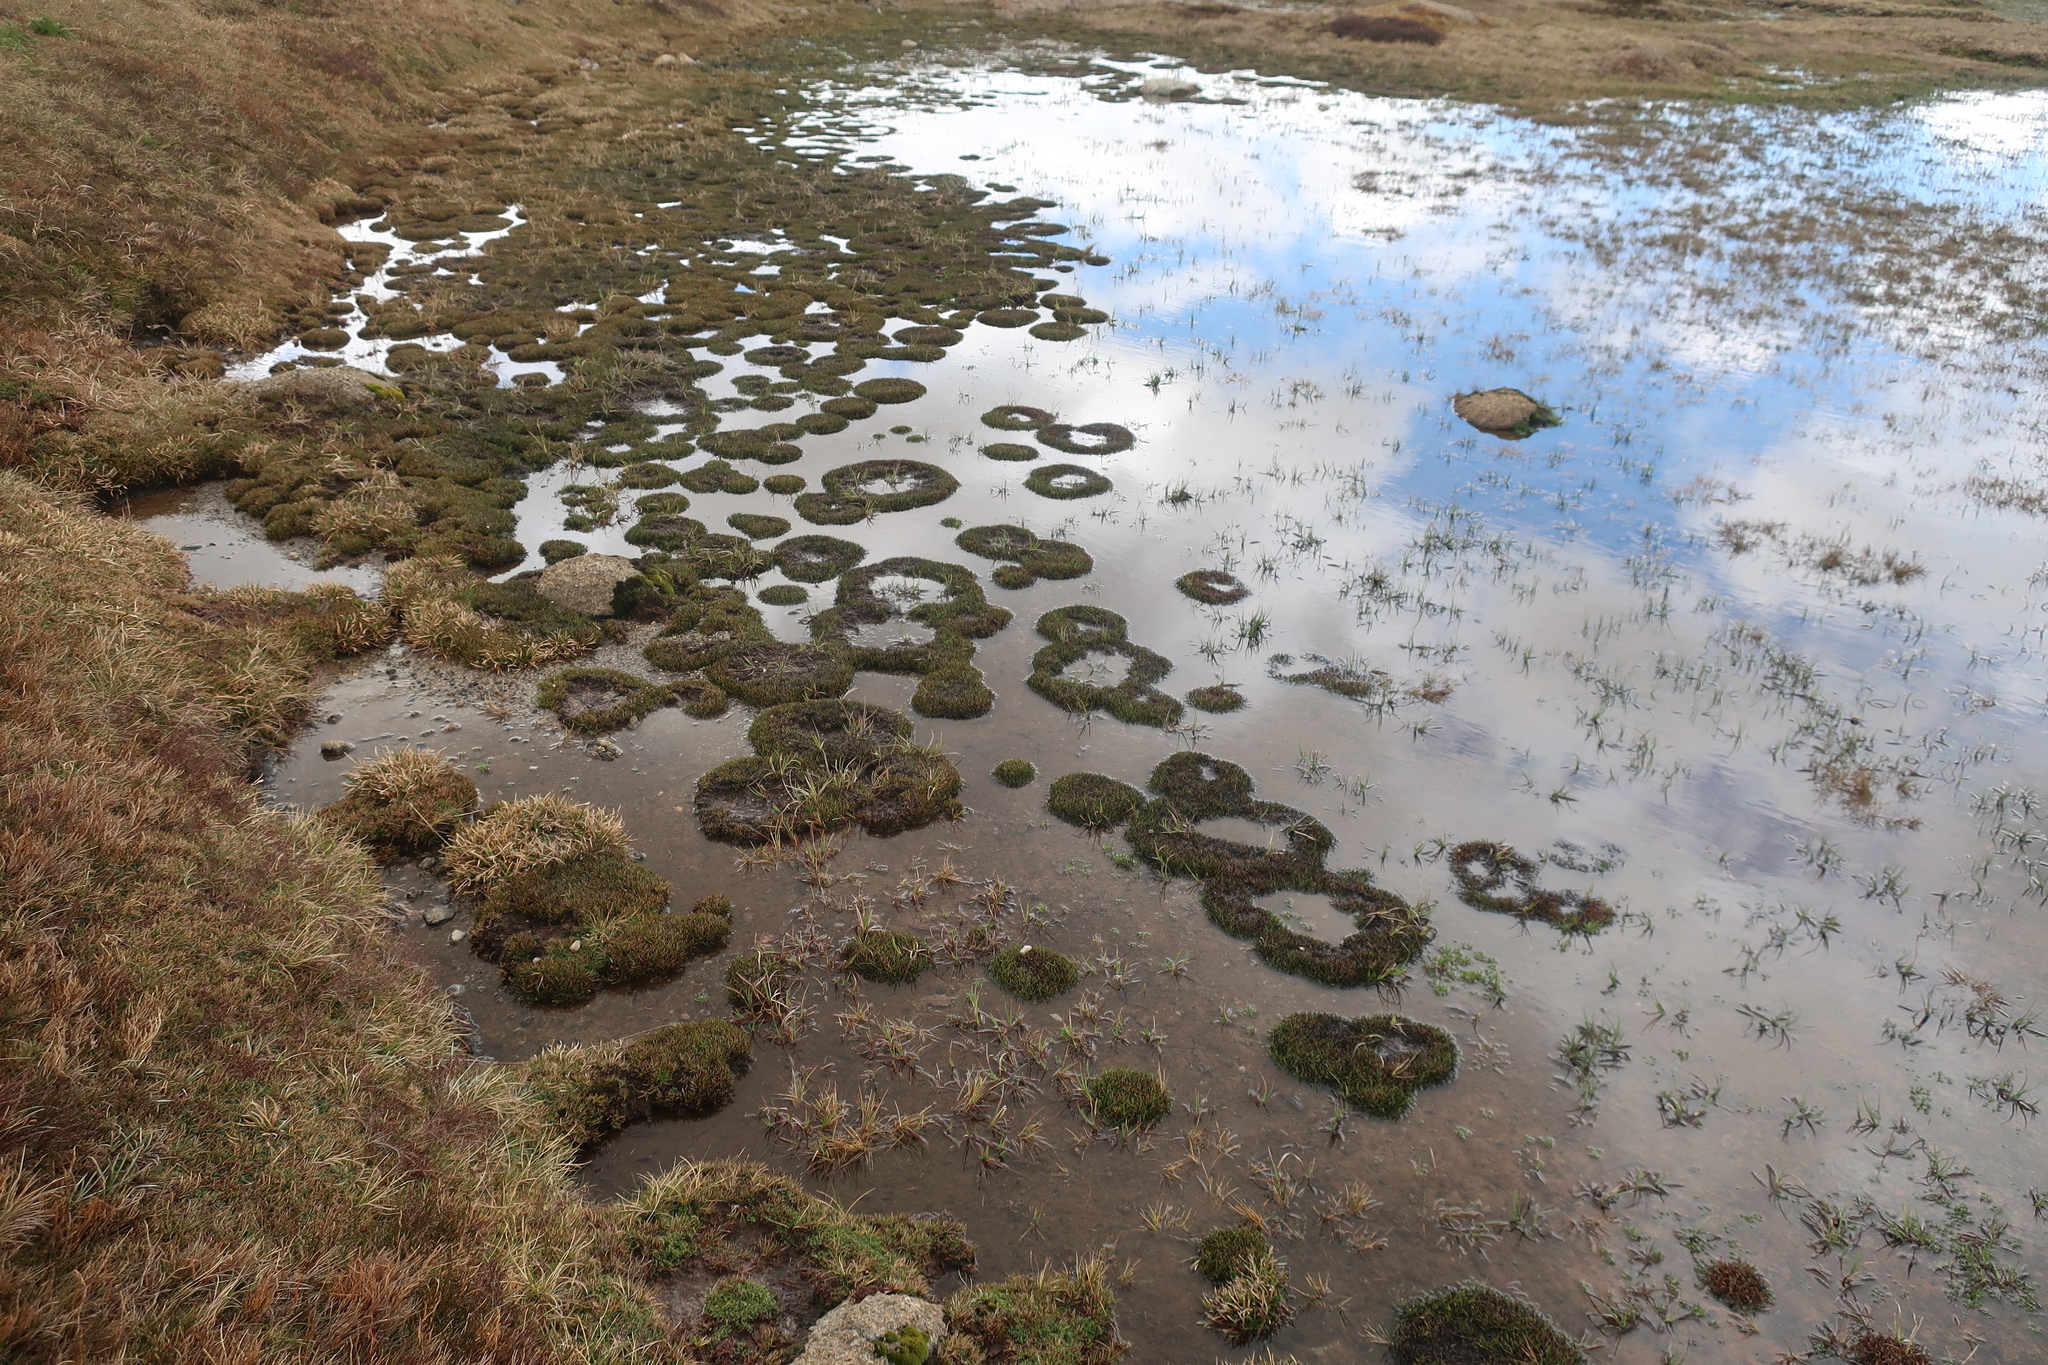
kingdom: Plantae
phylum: Tracheophyta
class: Liliopsida
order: Poales
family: Cyperaceae
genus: Oreobolus
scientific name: Oreobolus pumilio
